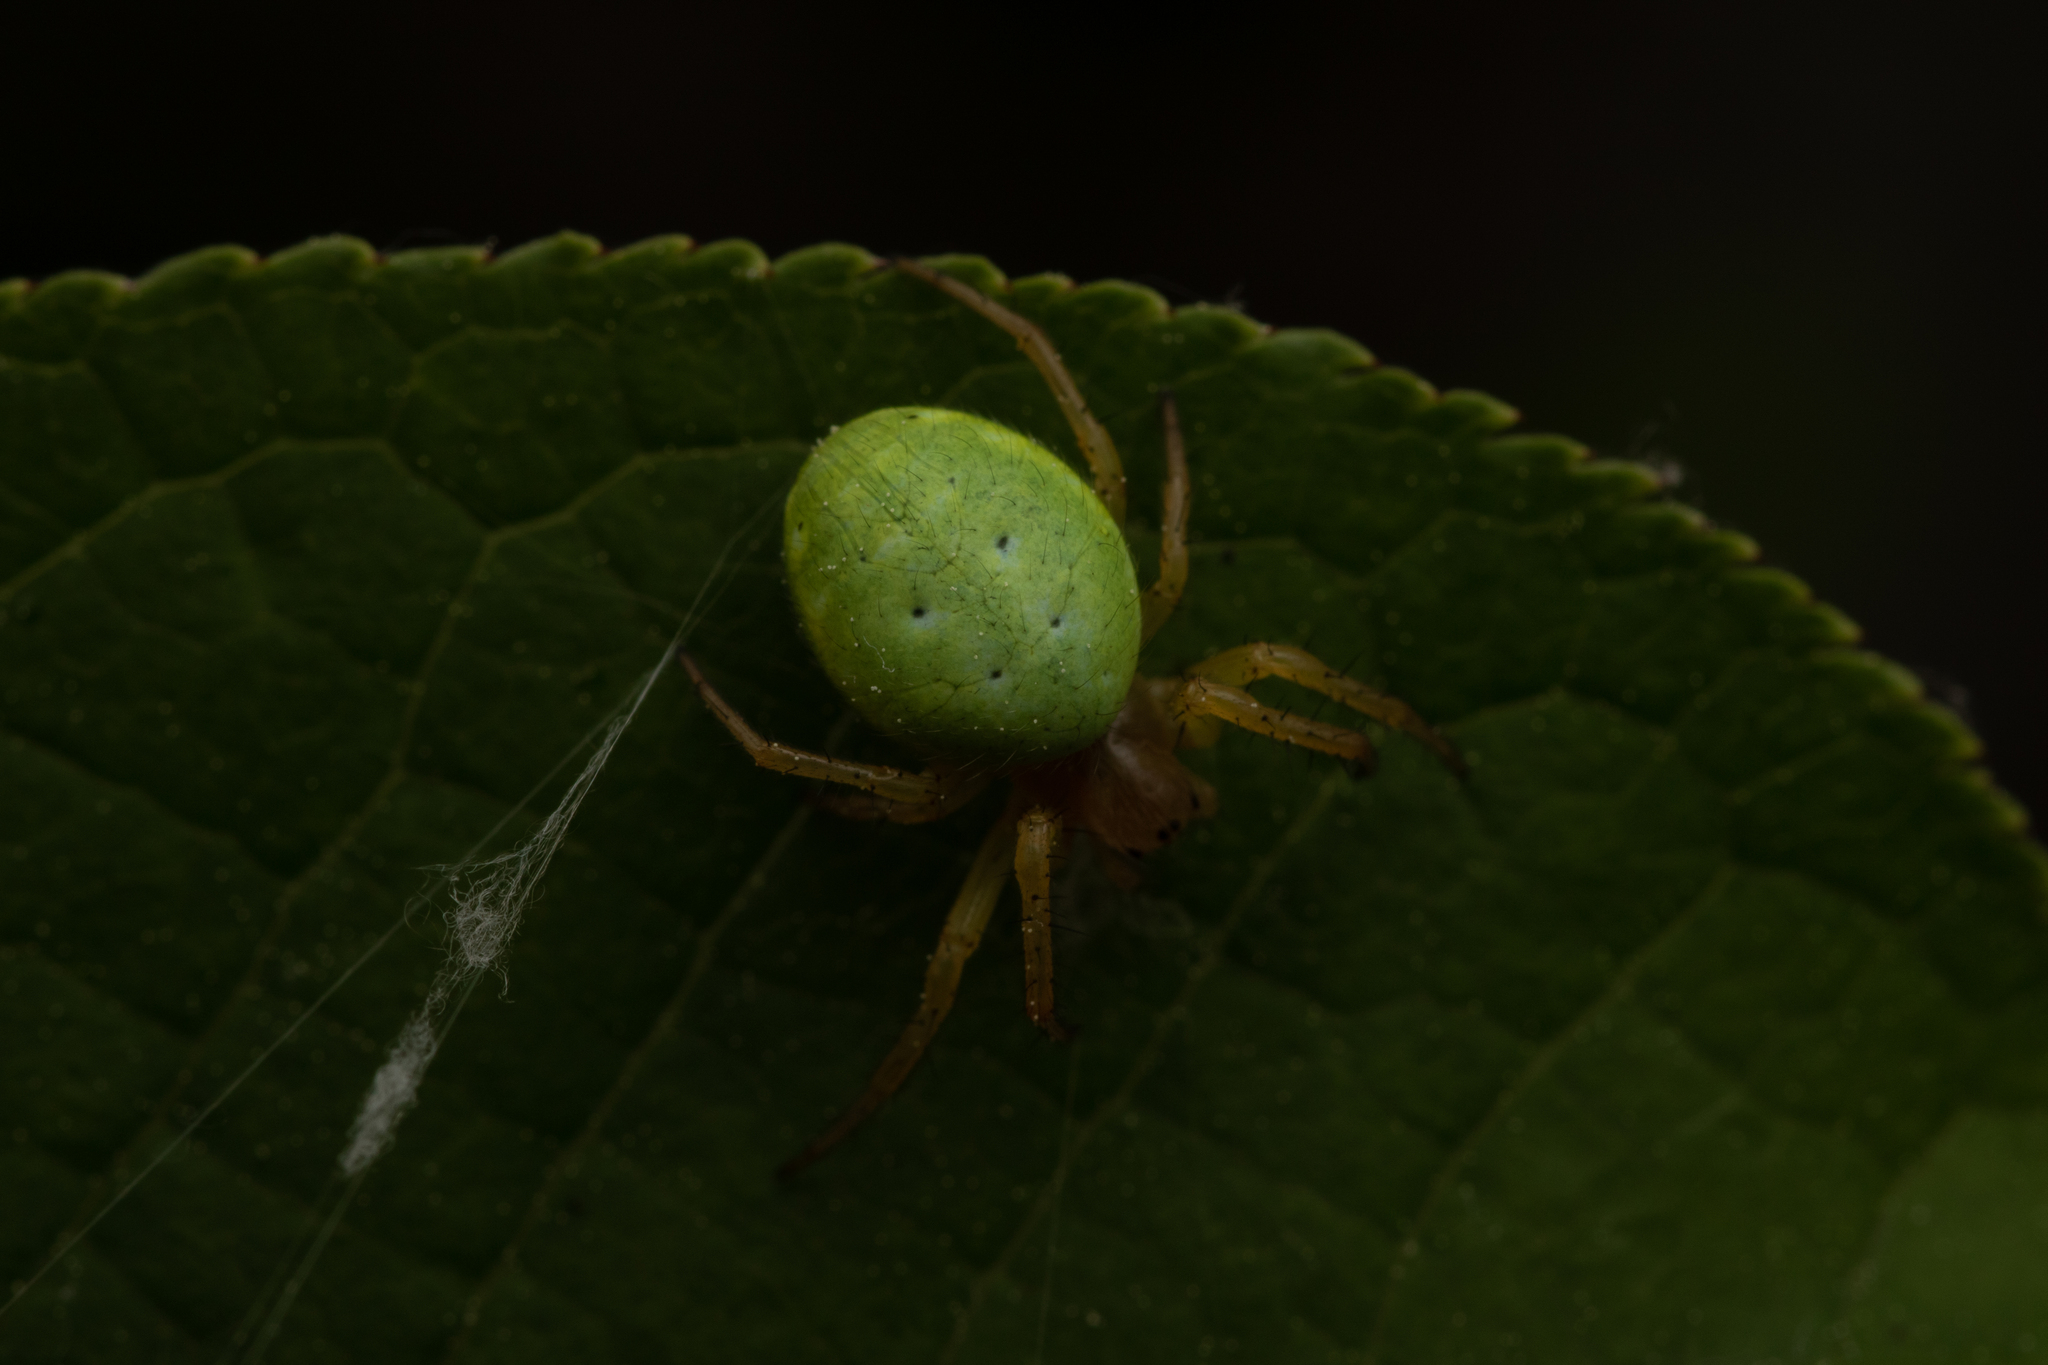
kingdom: Animalia
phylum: Arthropoda
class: Arachnida
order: Araneae
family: Araneidae
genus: Araniella
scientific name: Araniella
